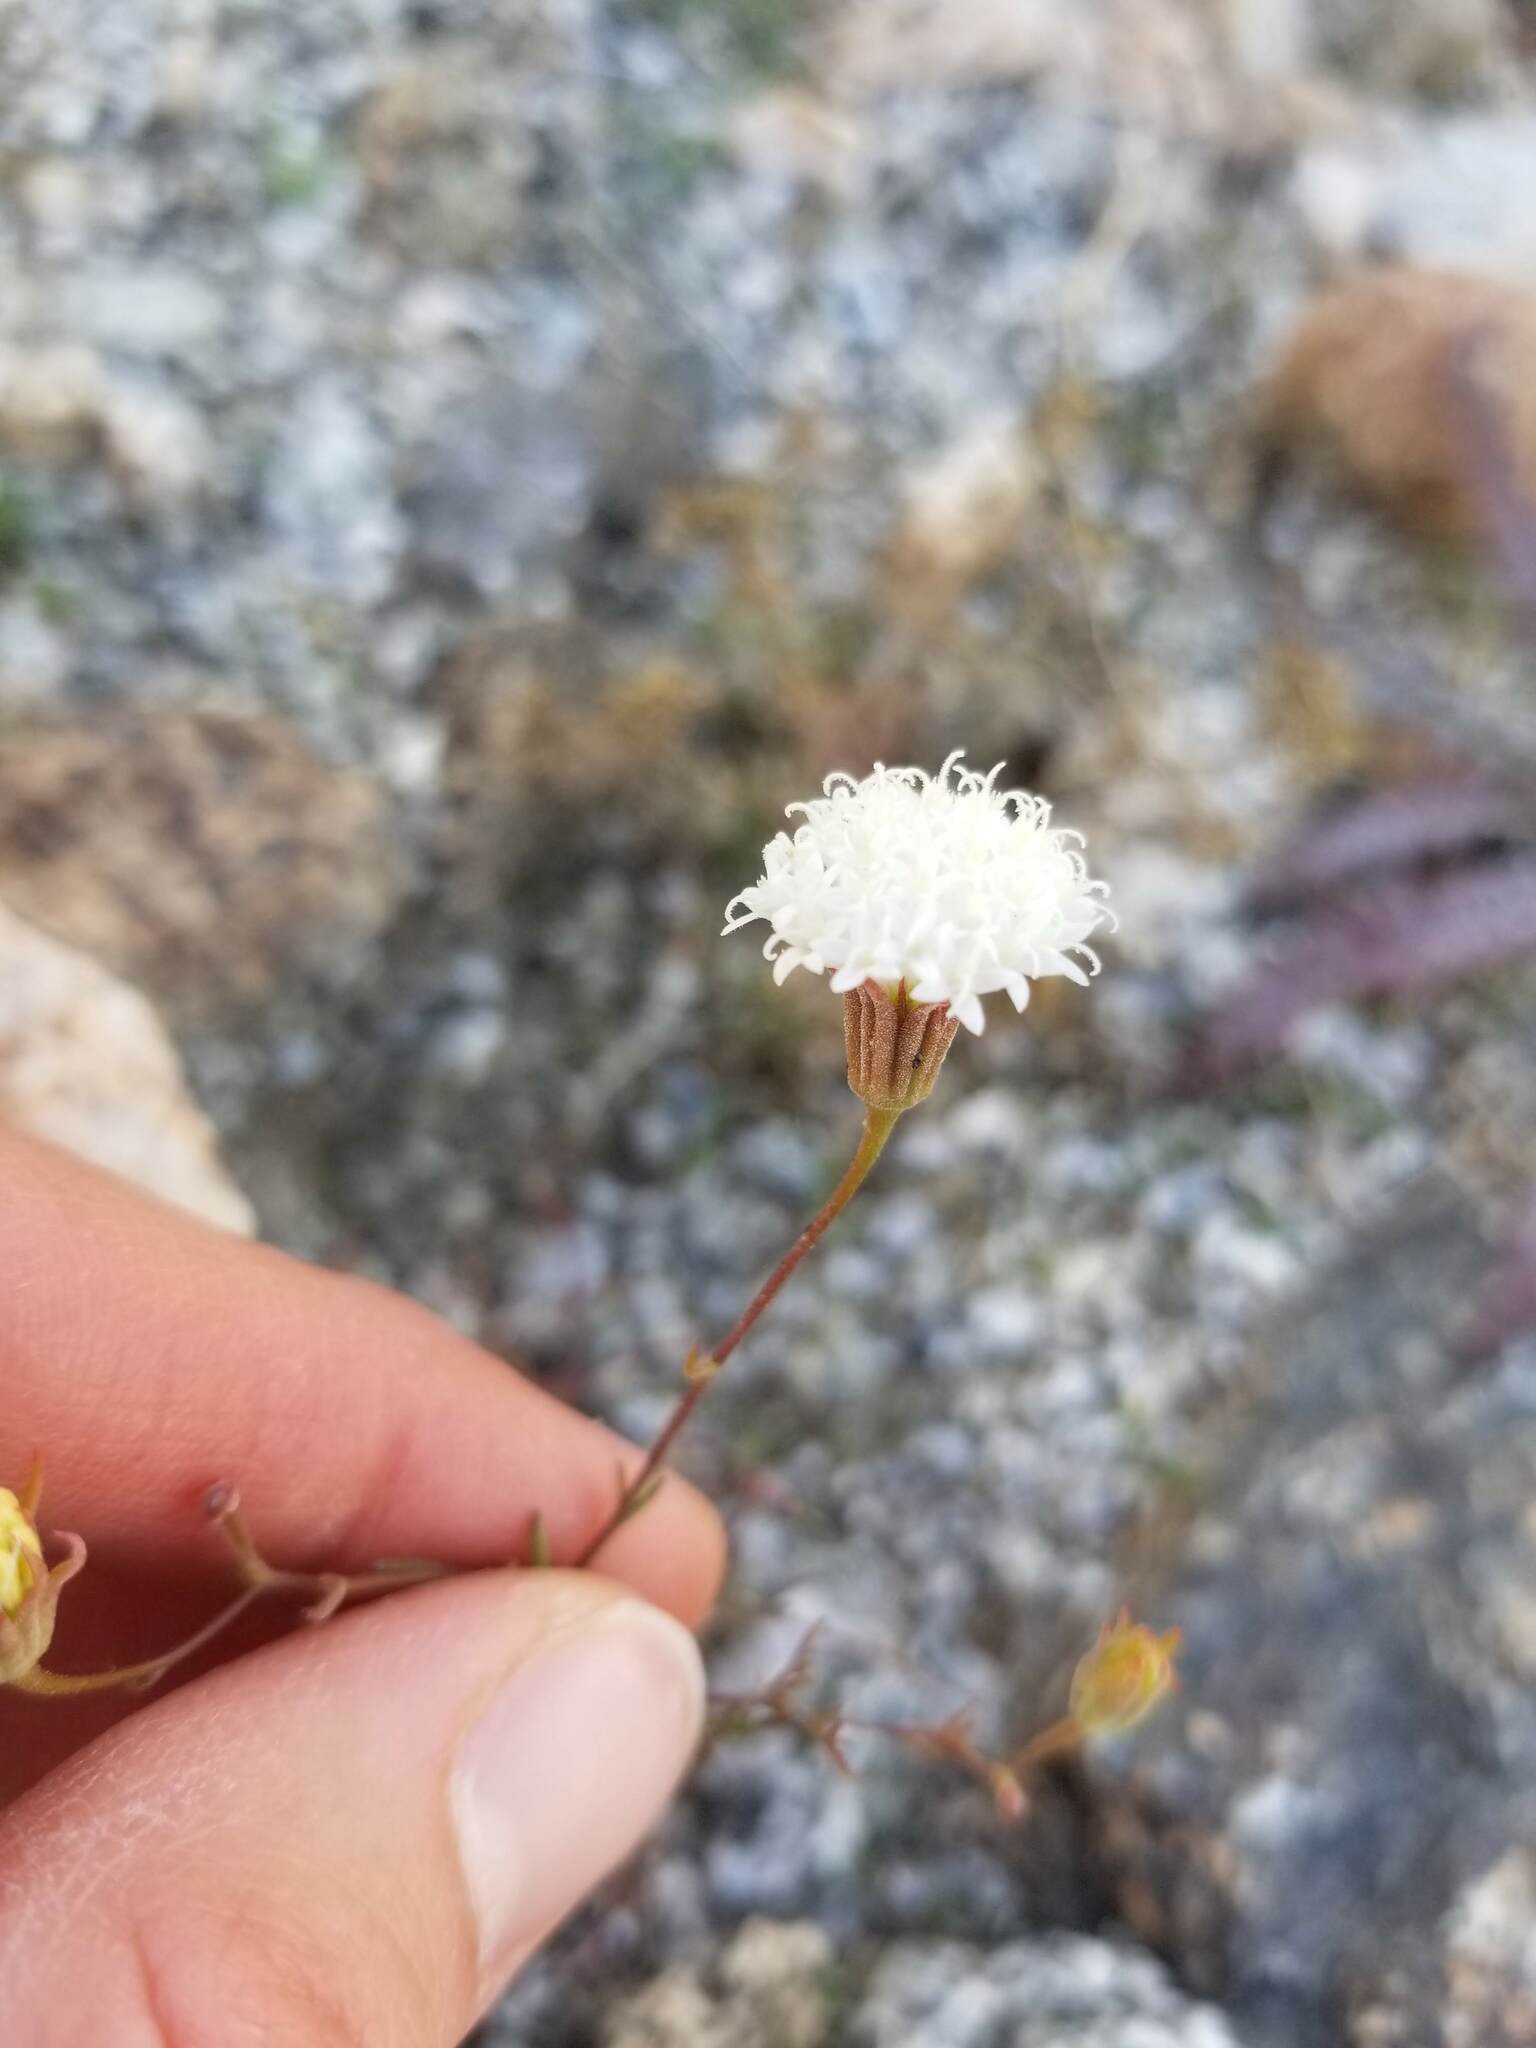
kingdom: Plantae
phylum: Tracheophyta
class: Magnoliopsida
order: Asterales
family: Asteraceae
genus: Chaenactis
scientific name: Chaenactis carphoclinia
